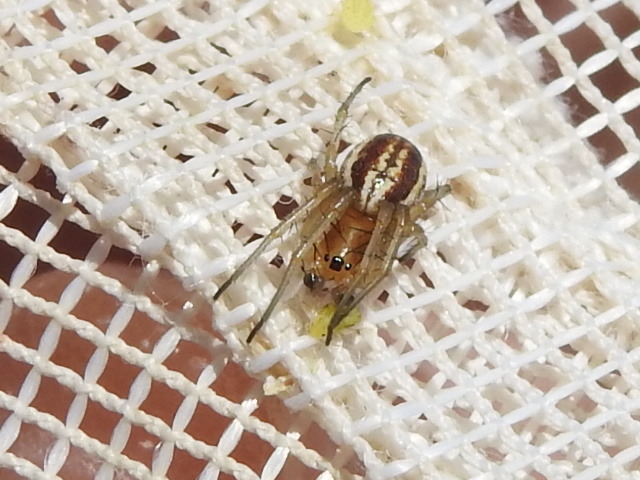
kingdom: Animalia
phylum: Arthropoda
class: Arachnida
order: Araneae
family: Araneidae
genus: Araneus
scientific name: Araneus pratensis
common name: Openfield orbweaver
